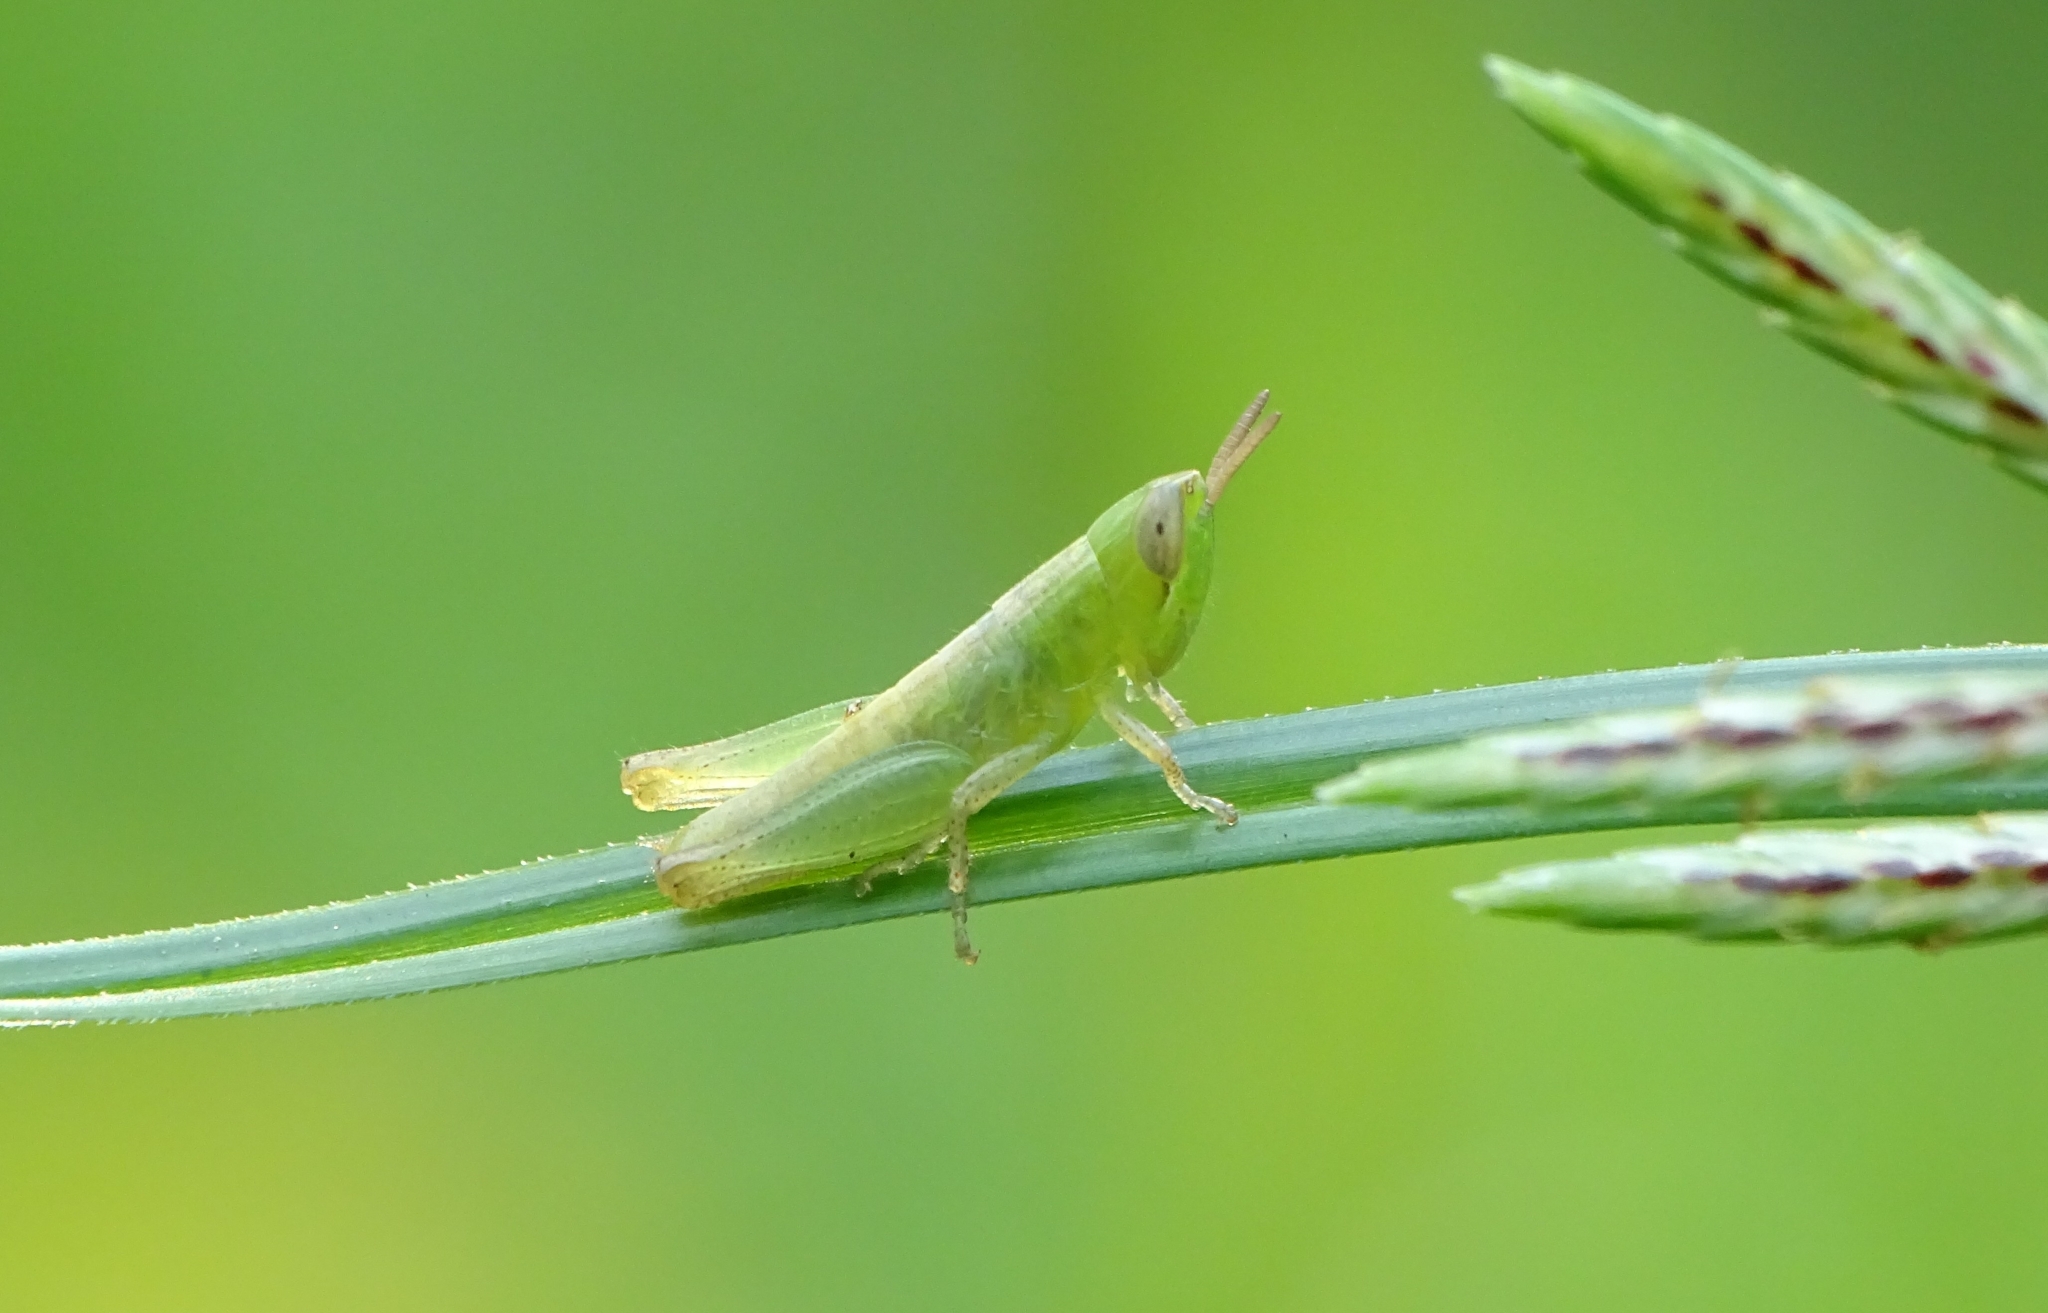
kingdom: Animalia
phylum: Arthropoda
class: Insecta
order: Orthoptera
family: Acrididae
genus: Spathosternum
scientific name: Spathosternum prasiniferum
